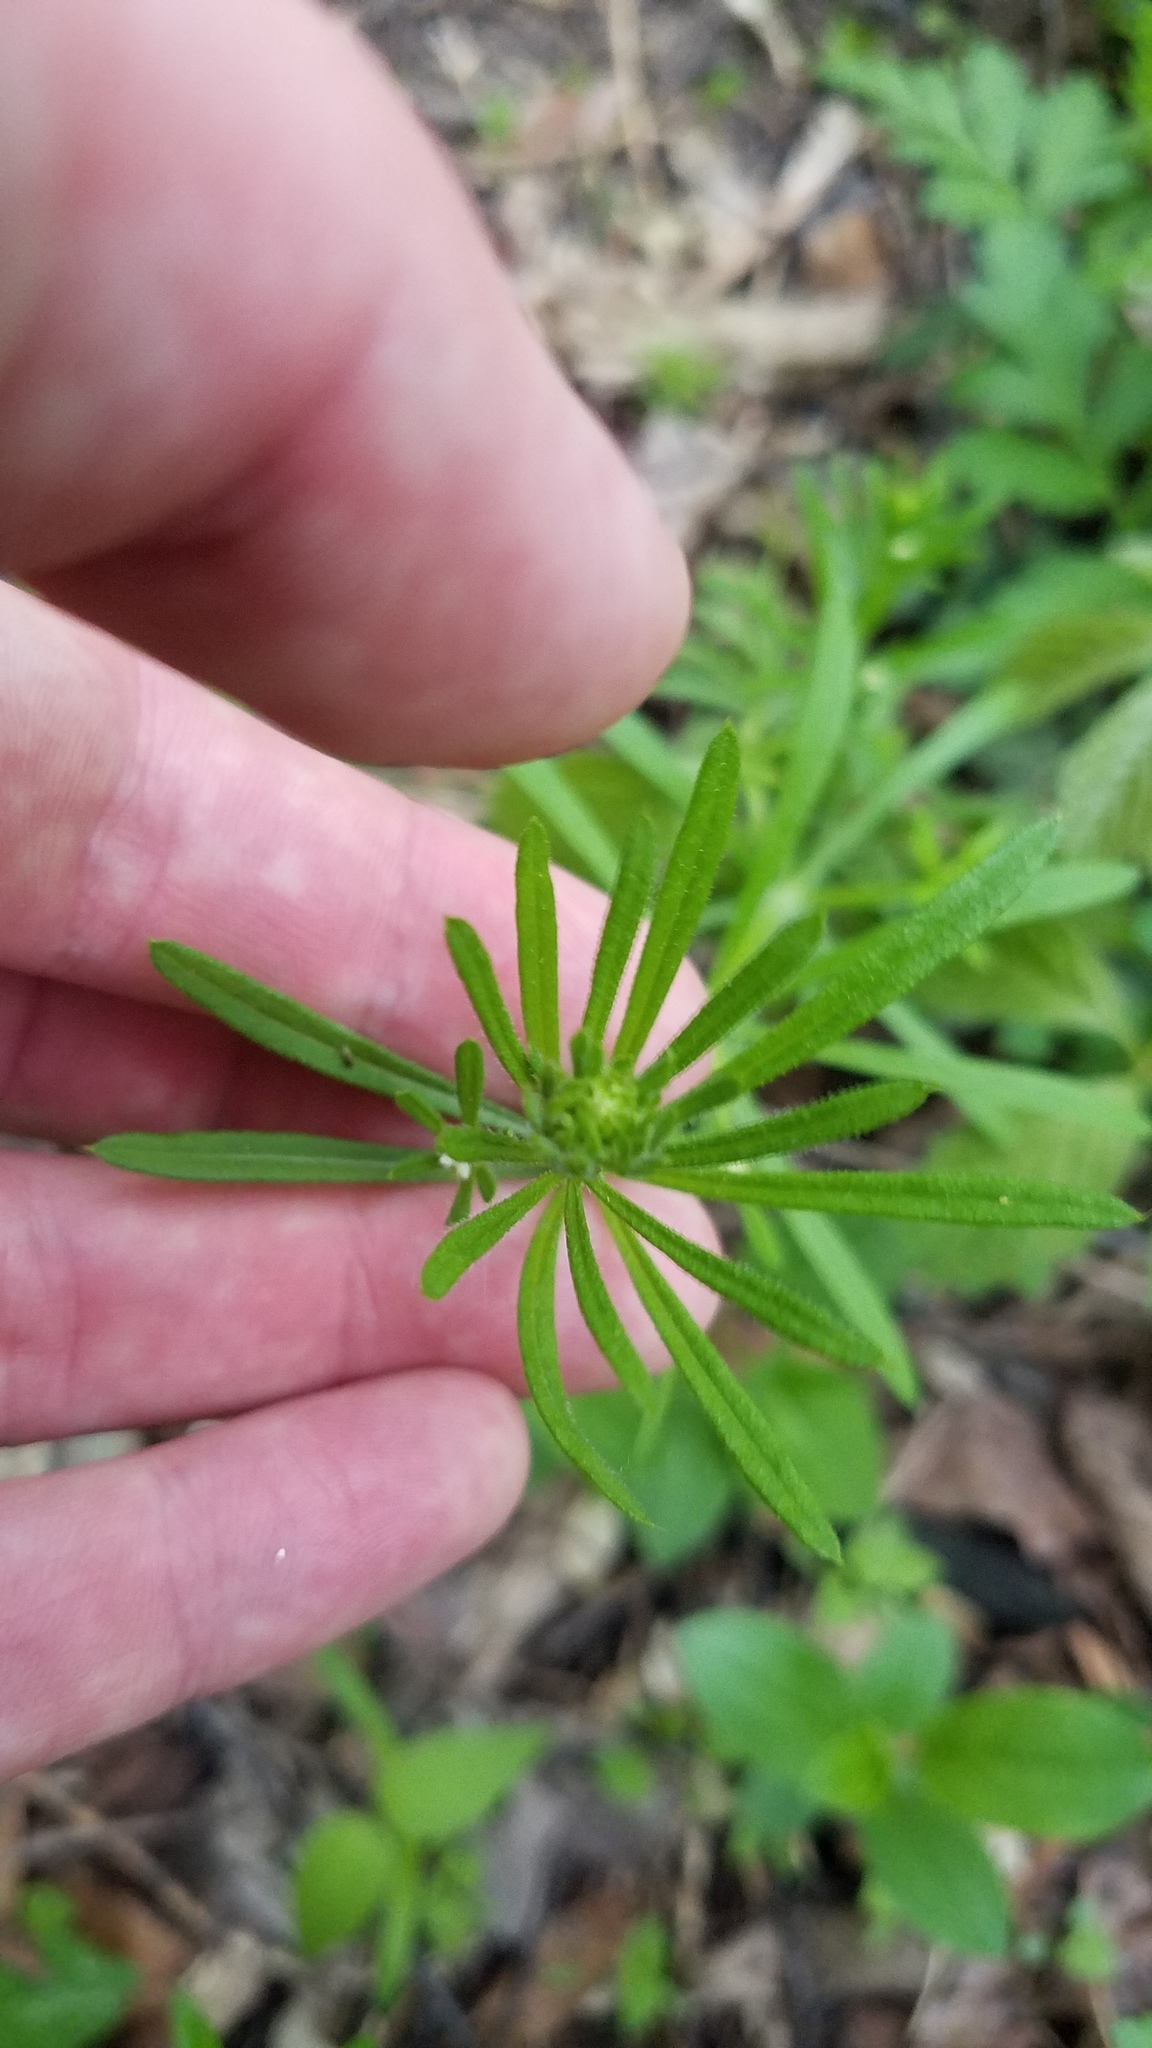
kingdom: Plantae
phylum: Tracheophyta
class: Magnoliopsida
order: Gentianales
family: Rubiaceae
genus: Galium
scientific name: Galium aparine
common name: Cleavers
